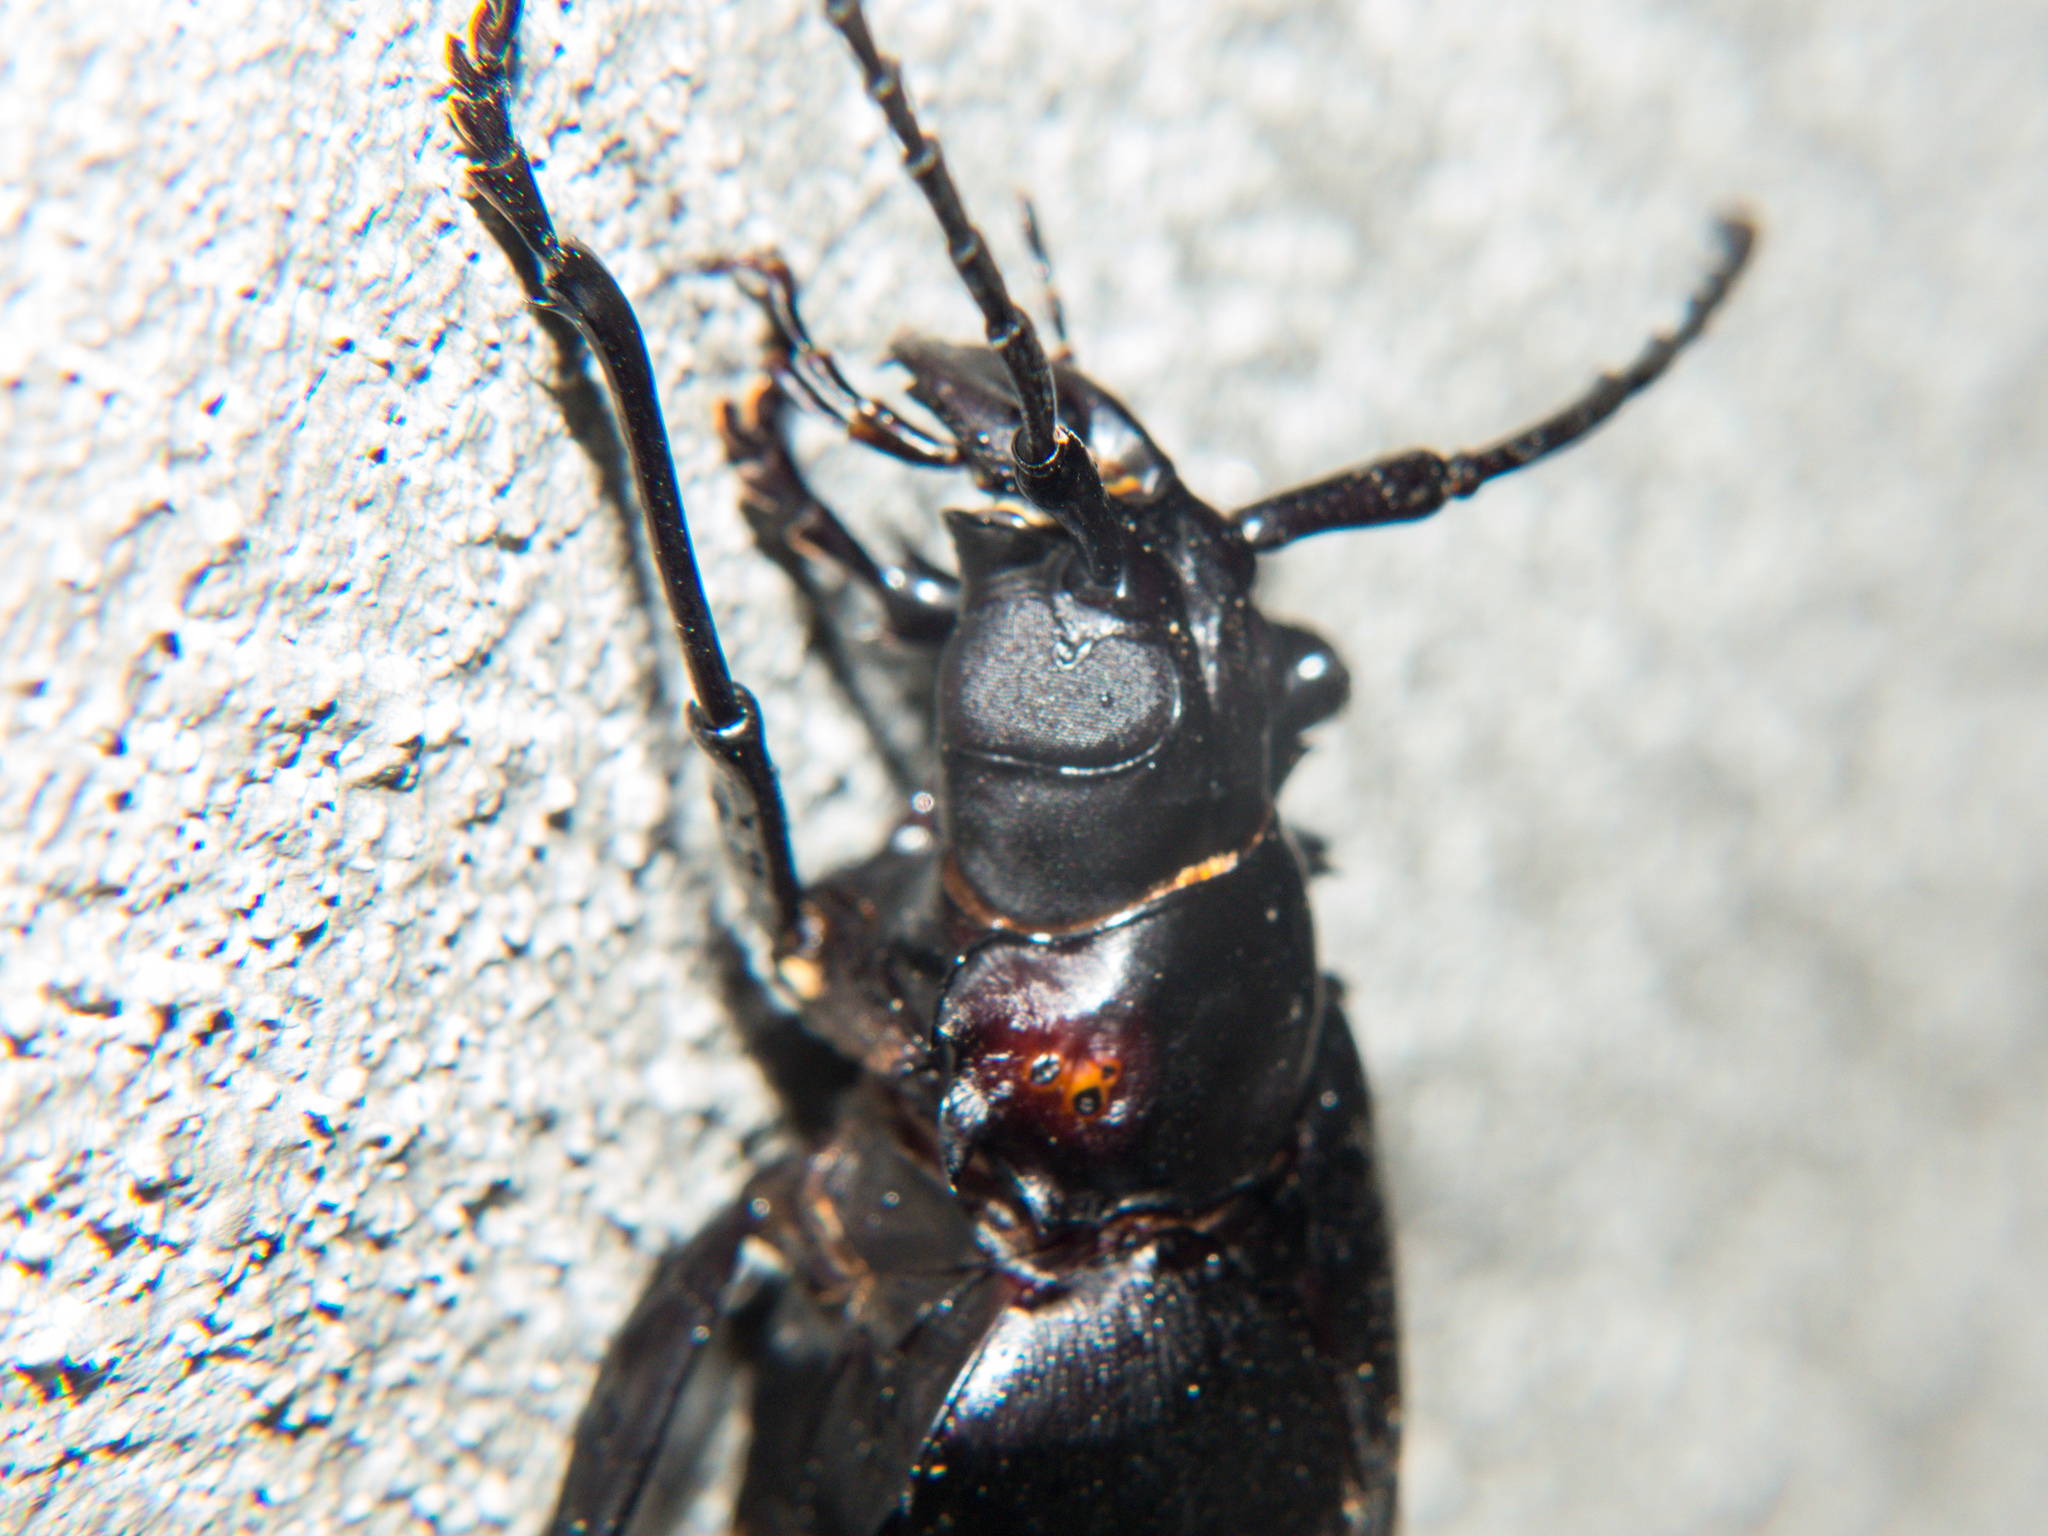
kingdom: Animalia
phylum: Arthropoda
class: Insecta
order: Coleoptera
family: Cerambycidae
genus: Dorysthenes
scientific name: Dorysthenes walkeri
